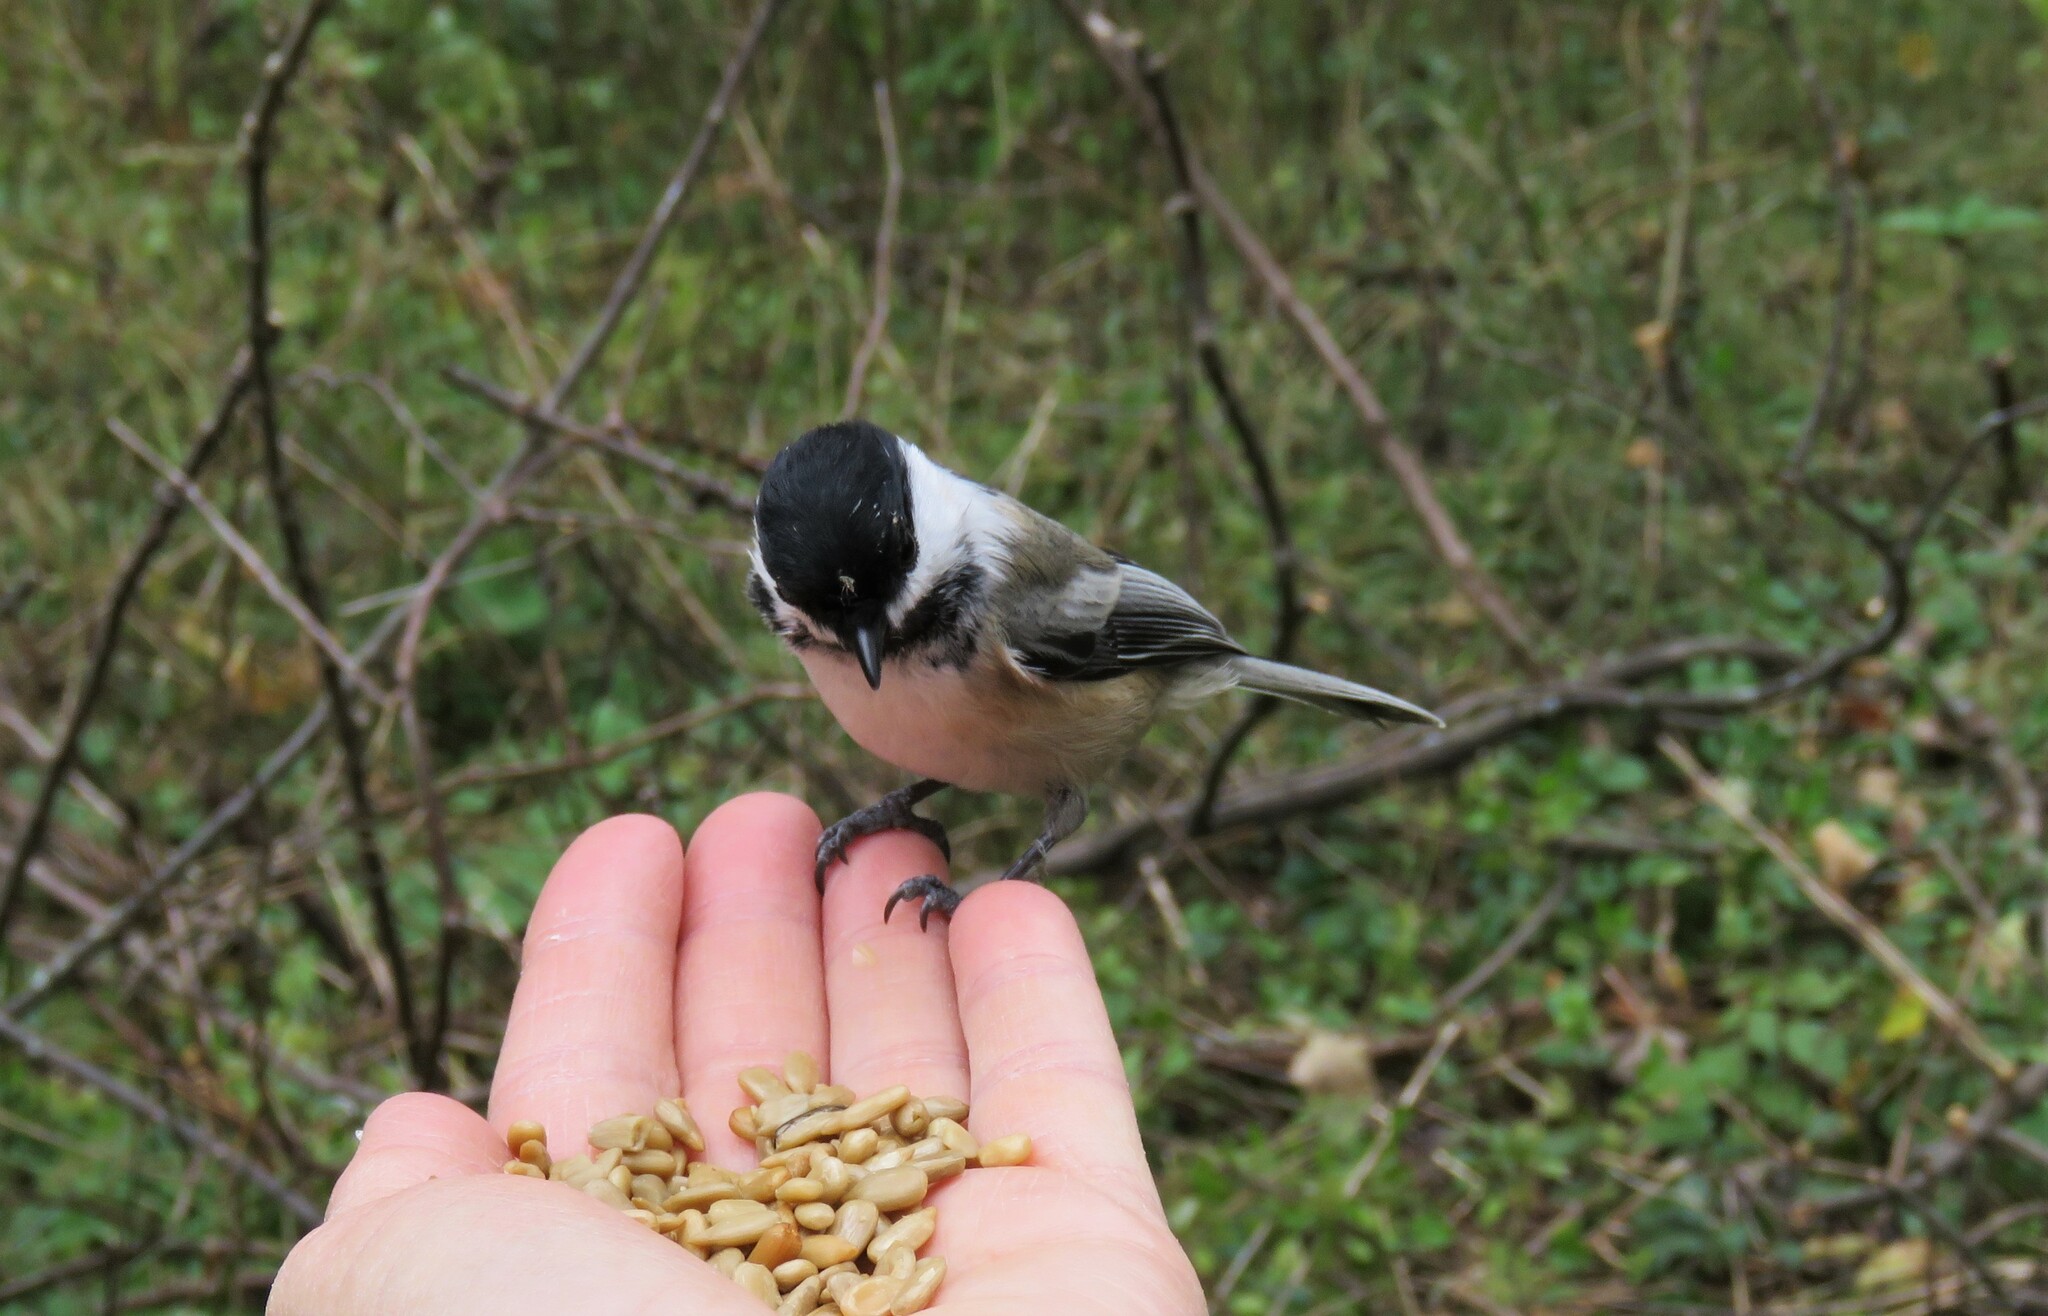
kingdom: Animalia
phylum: Chordata
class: Aves
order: Passeriformes
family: Paridae
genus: Poecile
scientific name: Poecile atricapillus
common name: Black-capped chickadee
